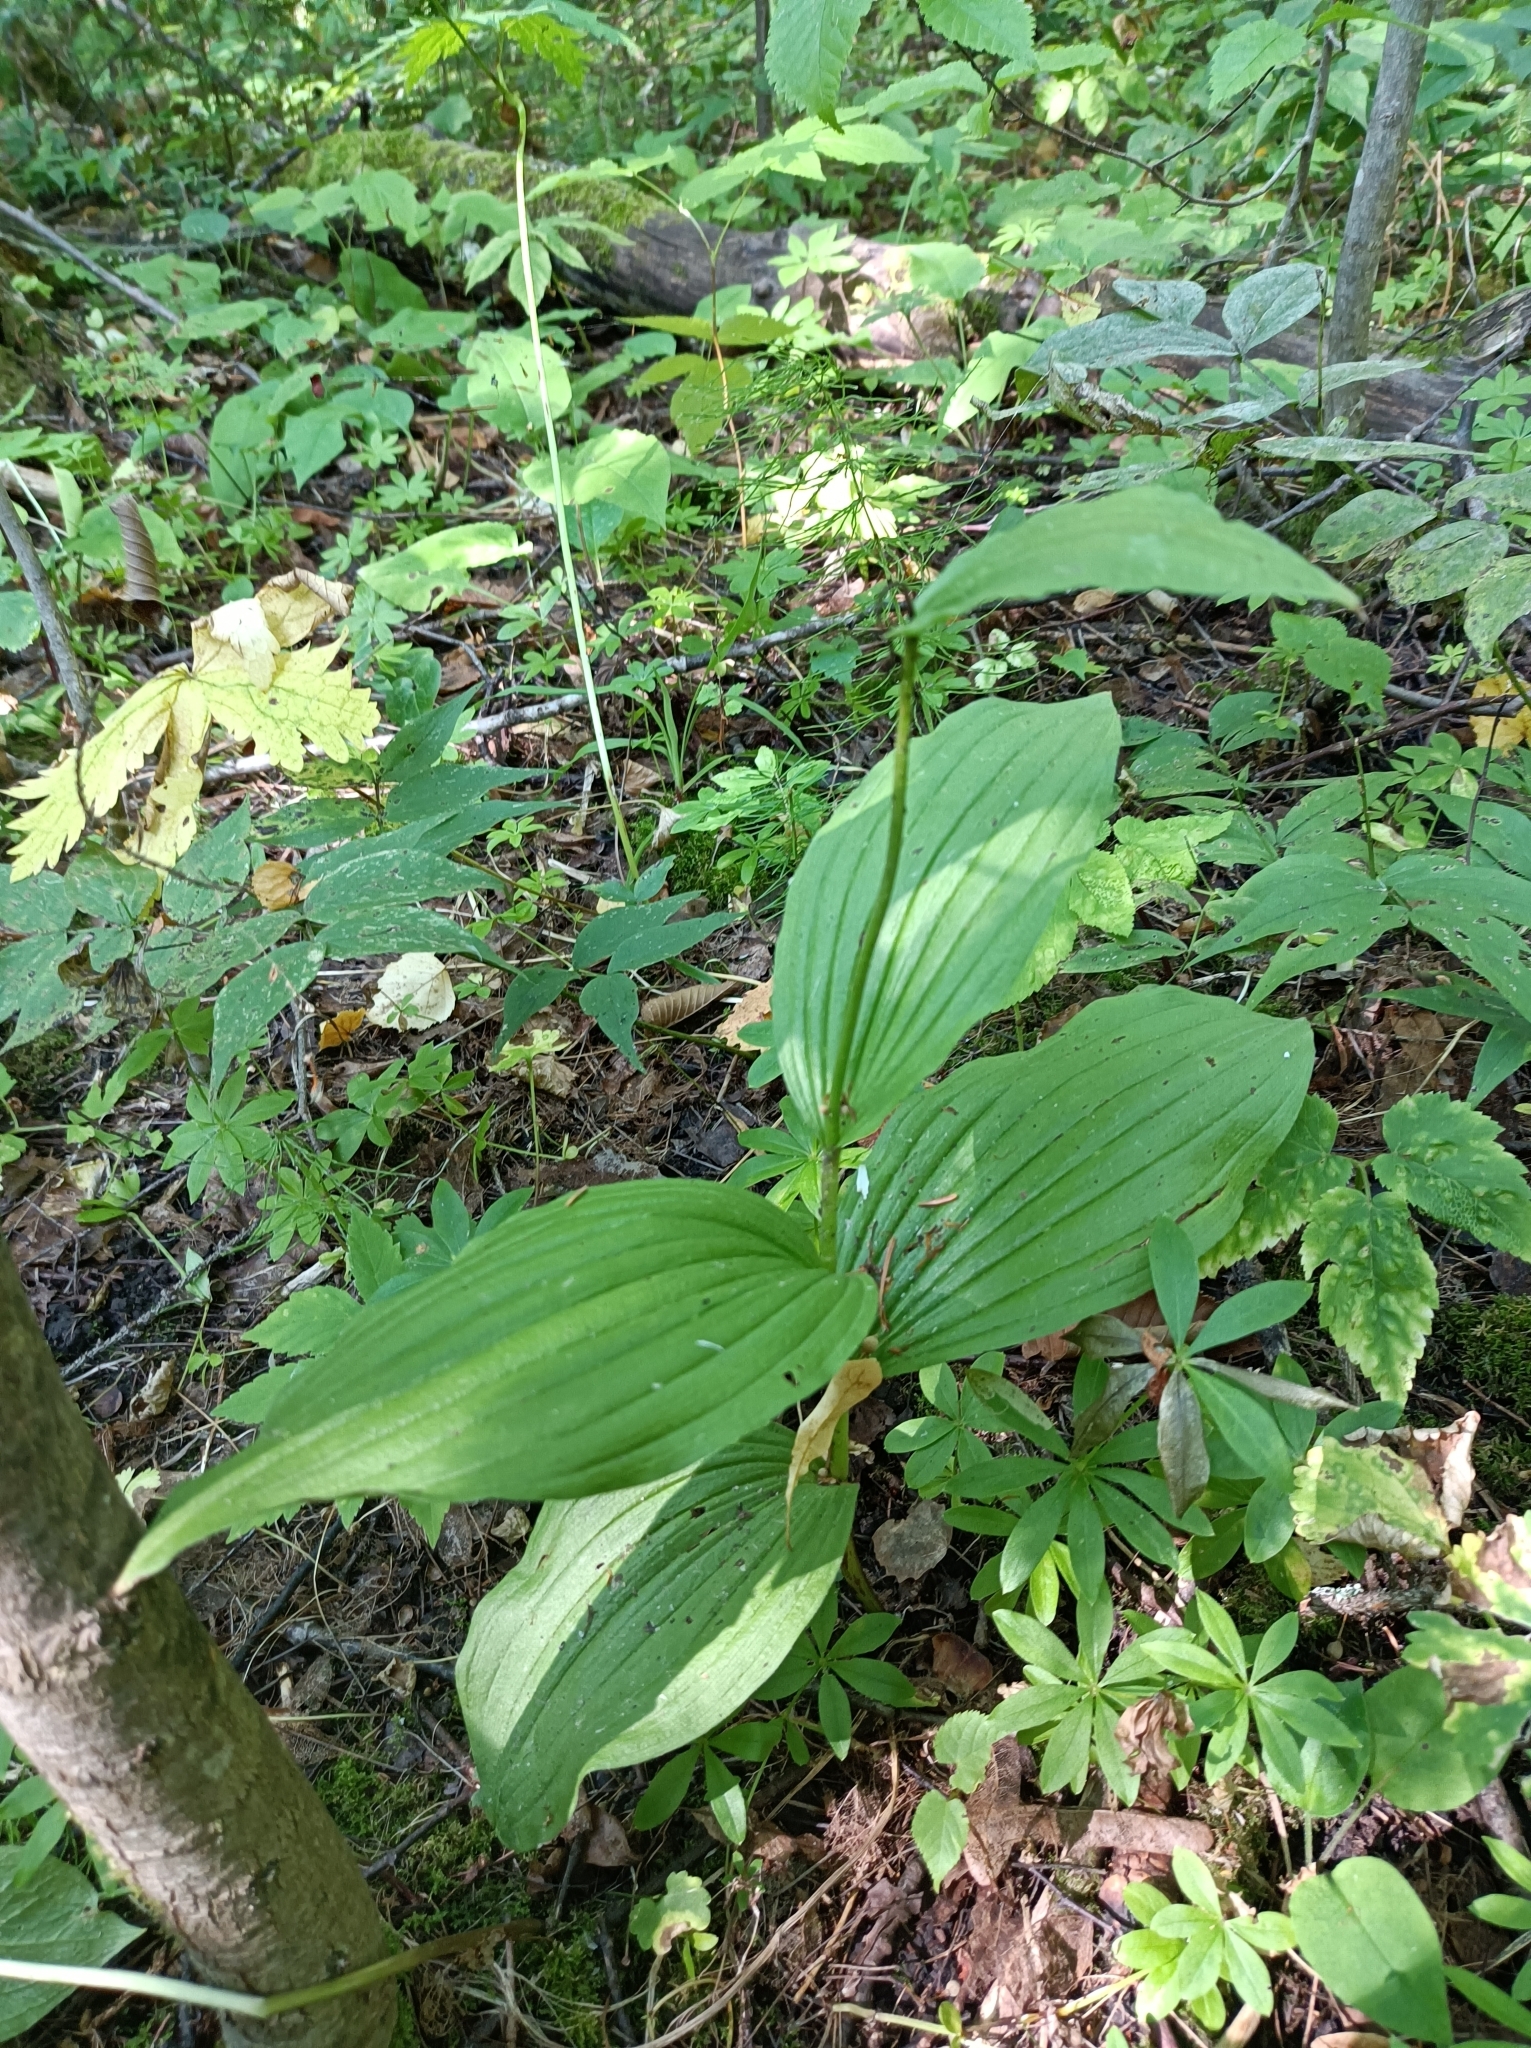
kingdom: Plantae
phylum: Tracheophyta
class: Liliopsida
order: Asparagales
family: Orchidaceae
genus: Cypripedium
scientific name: Cypripedium calceolus
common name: Lady's-slipper
